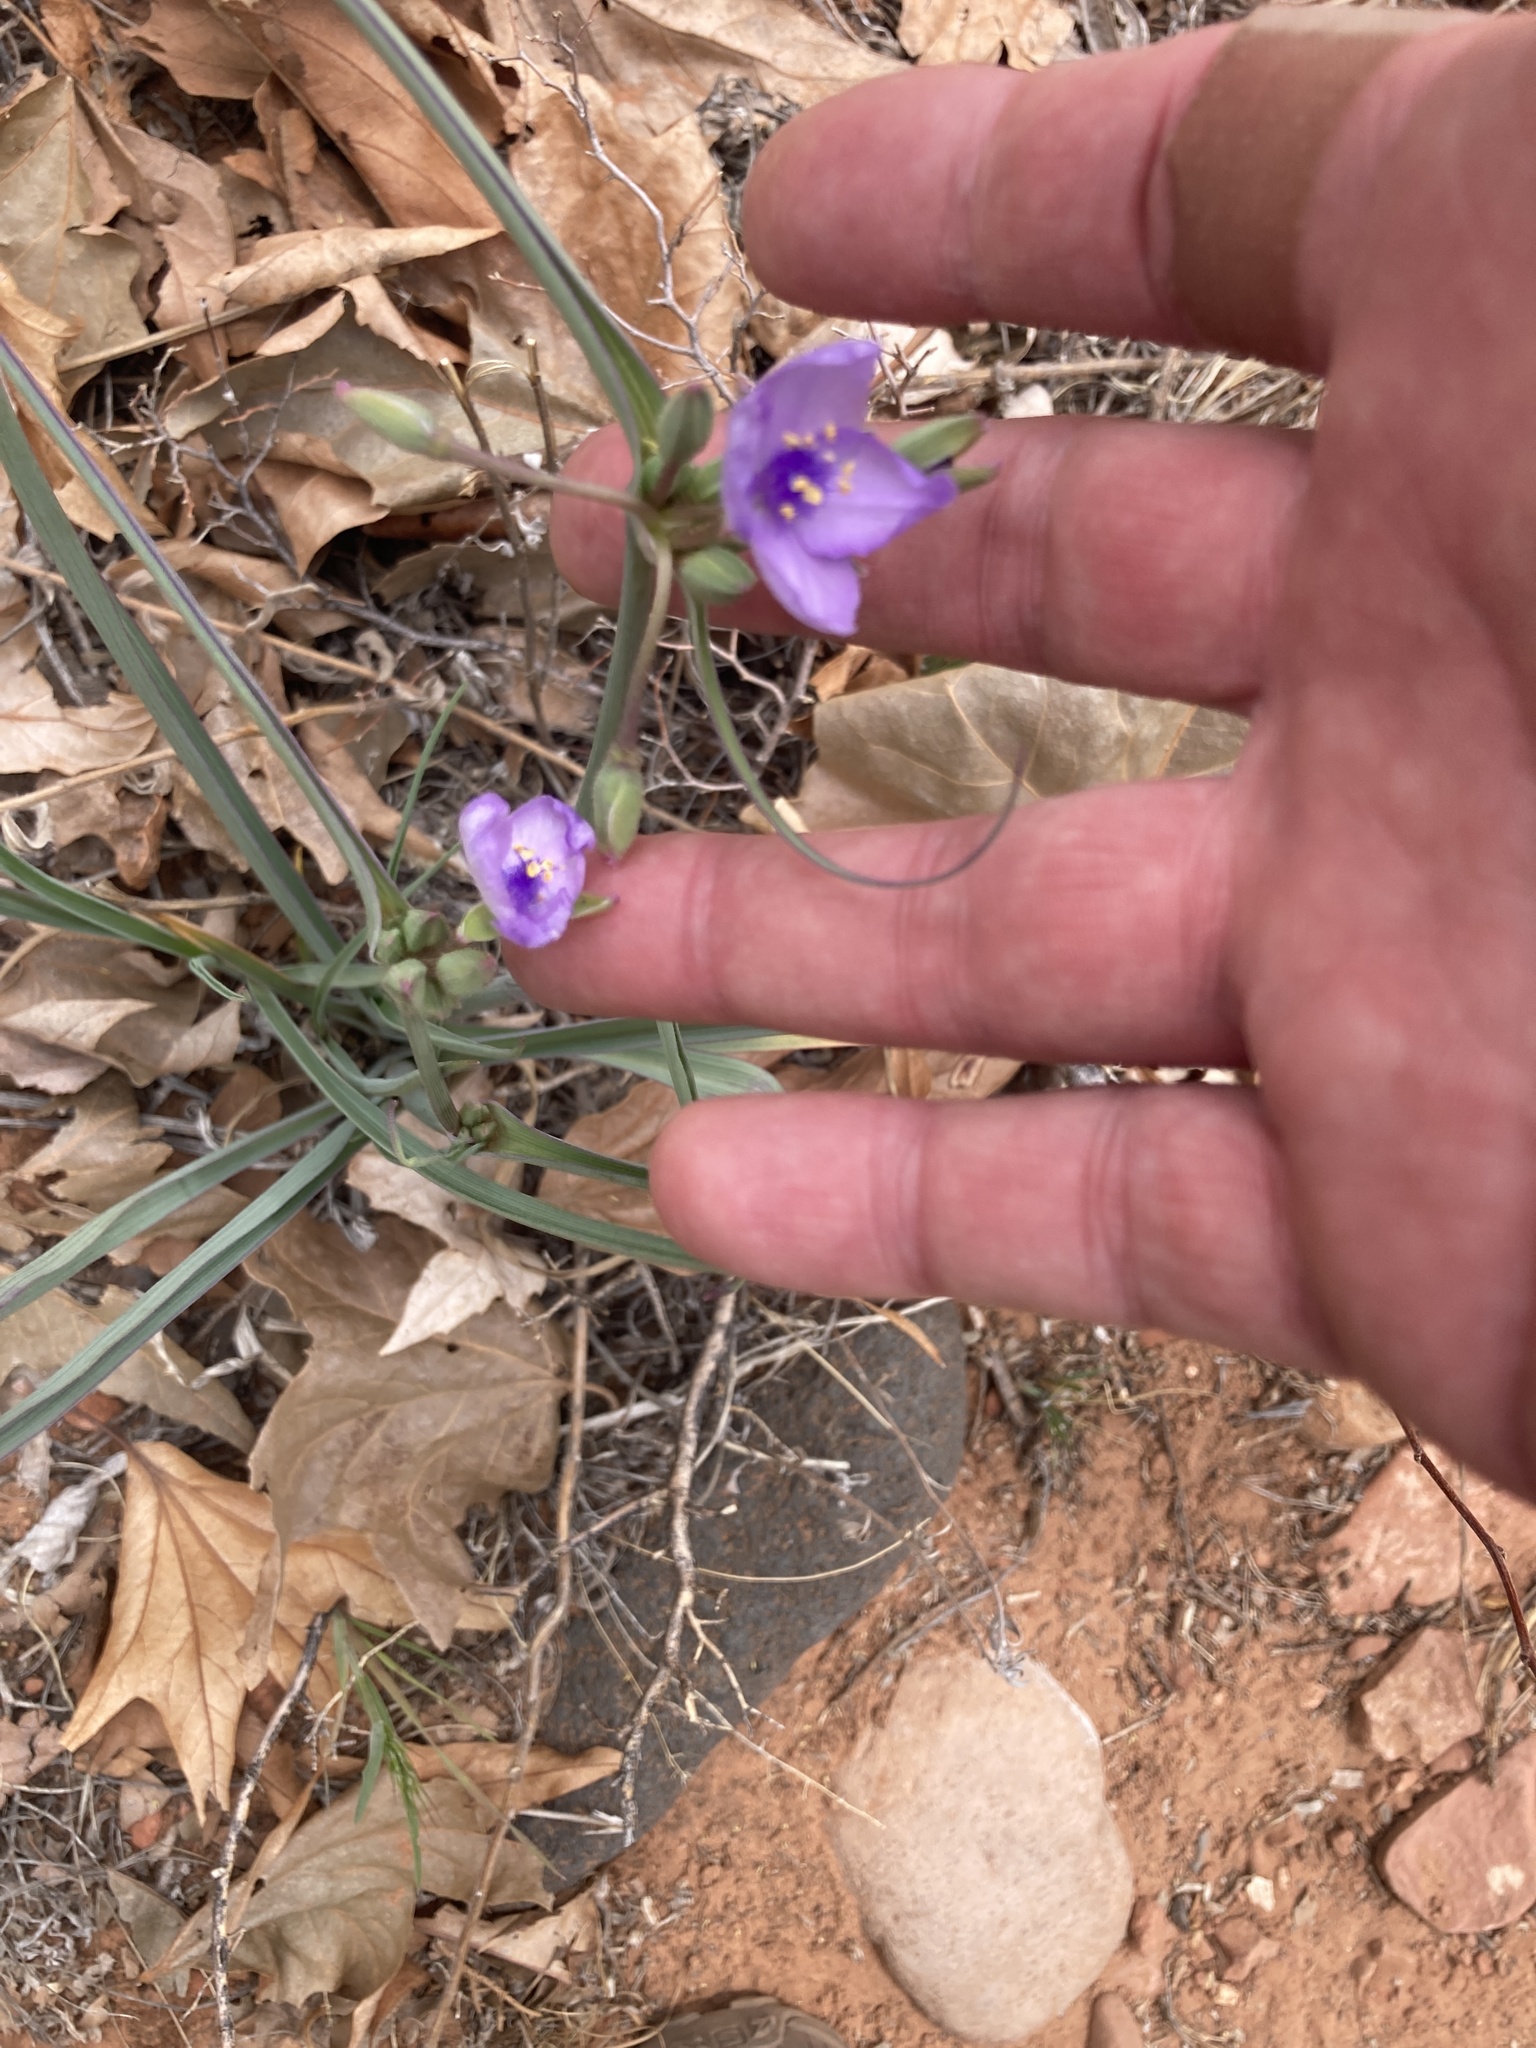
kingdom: Plantae
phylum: Tracheophyta
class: Liliopsida
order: Commelinales
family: Commelinaceae
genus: Tradescantia
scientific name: Tradescantia occidentalis
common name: Prairie spiderwort
